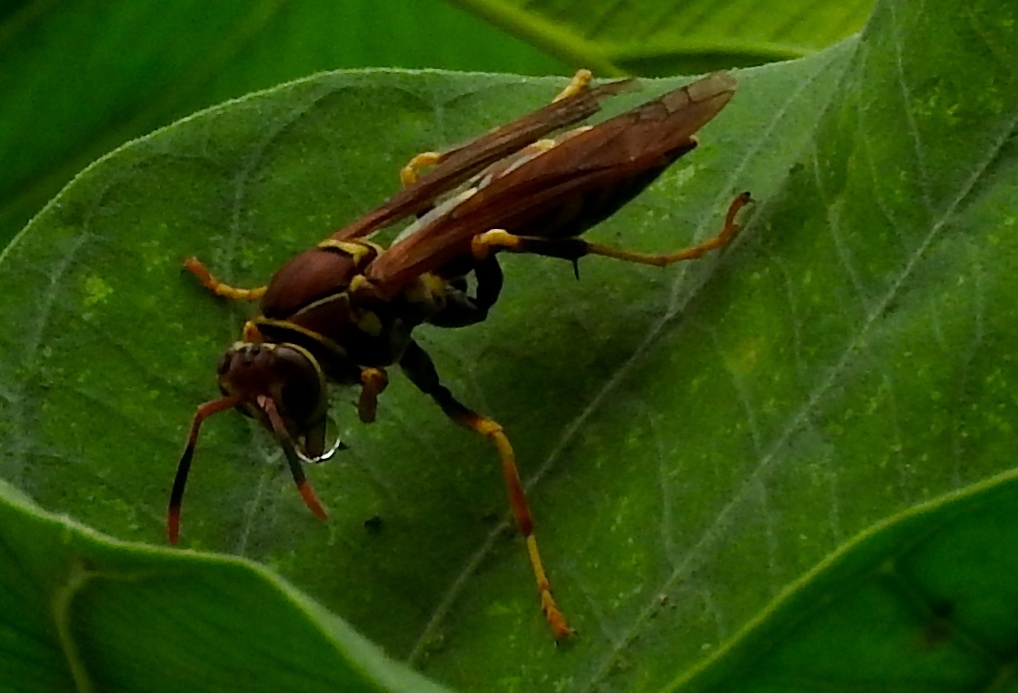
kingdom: Animalia
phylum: Arthropoda
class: Insecta
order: Hymenoptera
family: Eumenidae
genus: Polistes
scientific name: Polistes instabilis
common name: Unstable paper wasp
